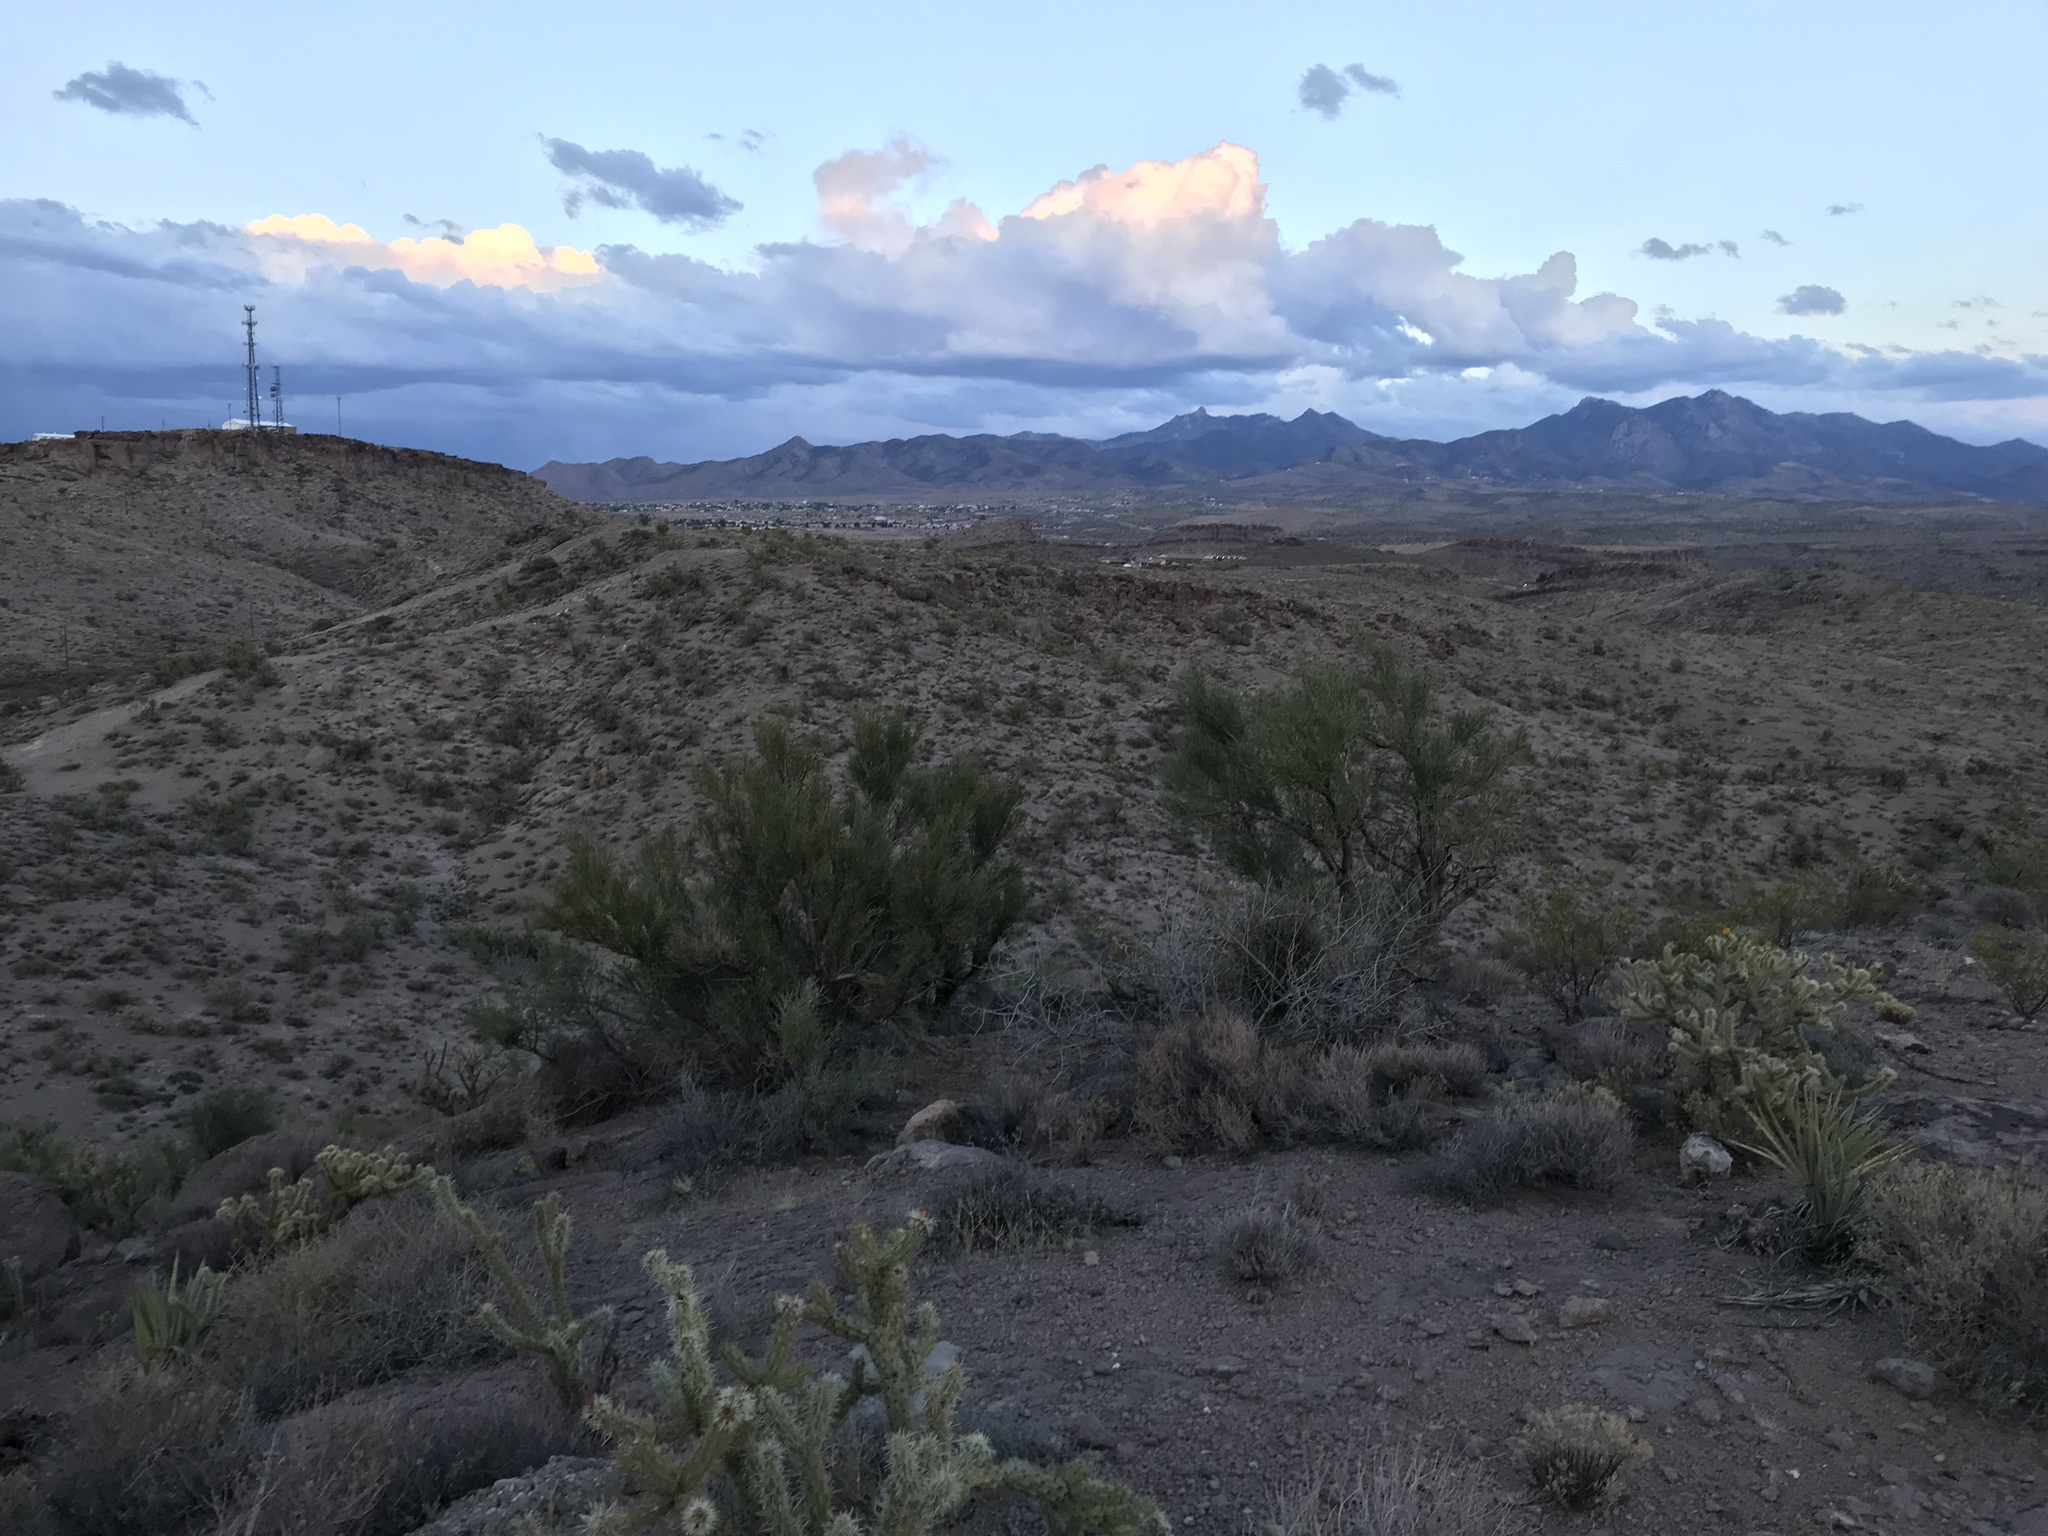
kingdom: Plantae
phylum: Tracheophyta
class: Magnoliopsida
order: Celastrales
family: Celastraceae
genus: Canotia
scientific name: Canotia holacantha
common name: Crucifixion thorns
